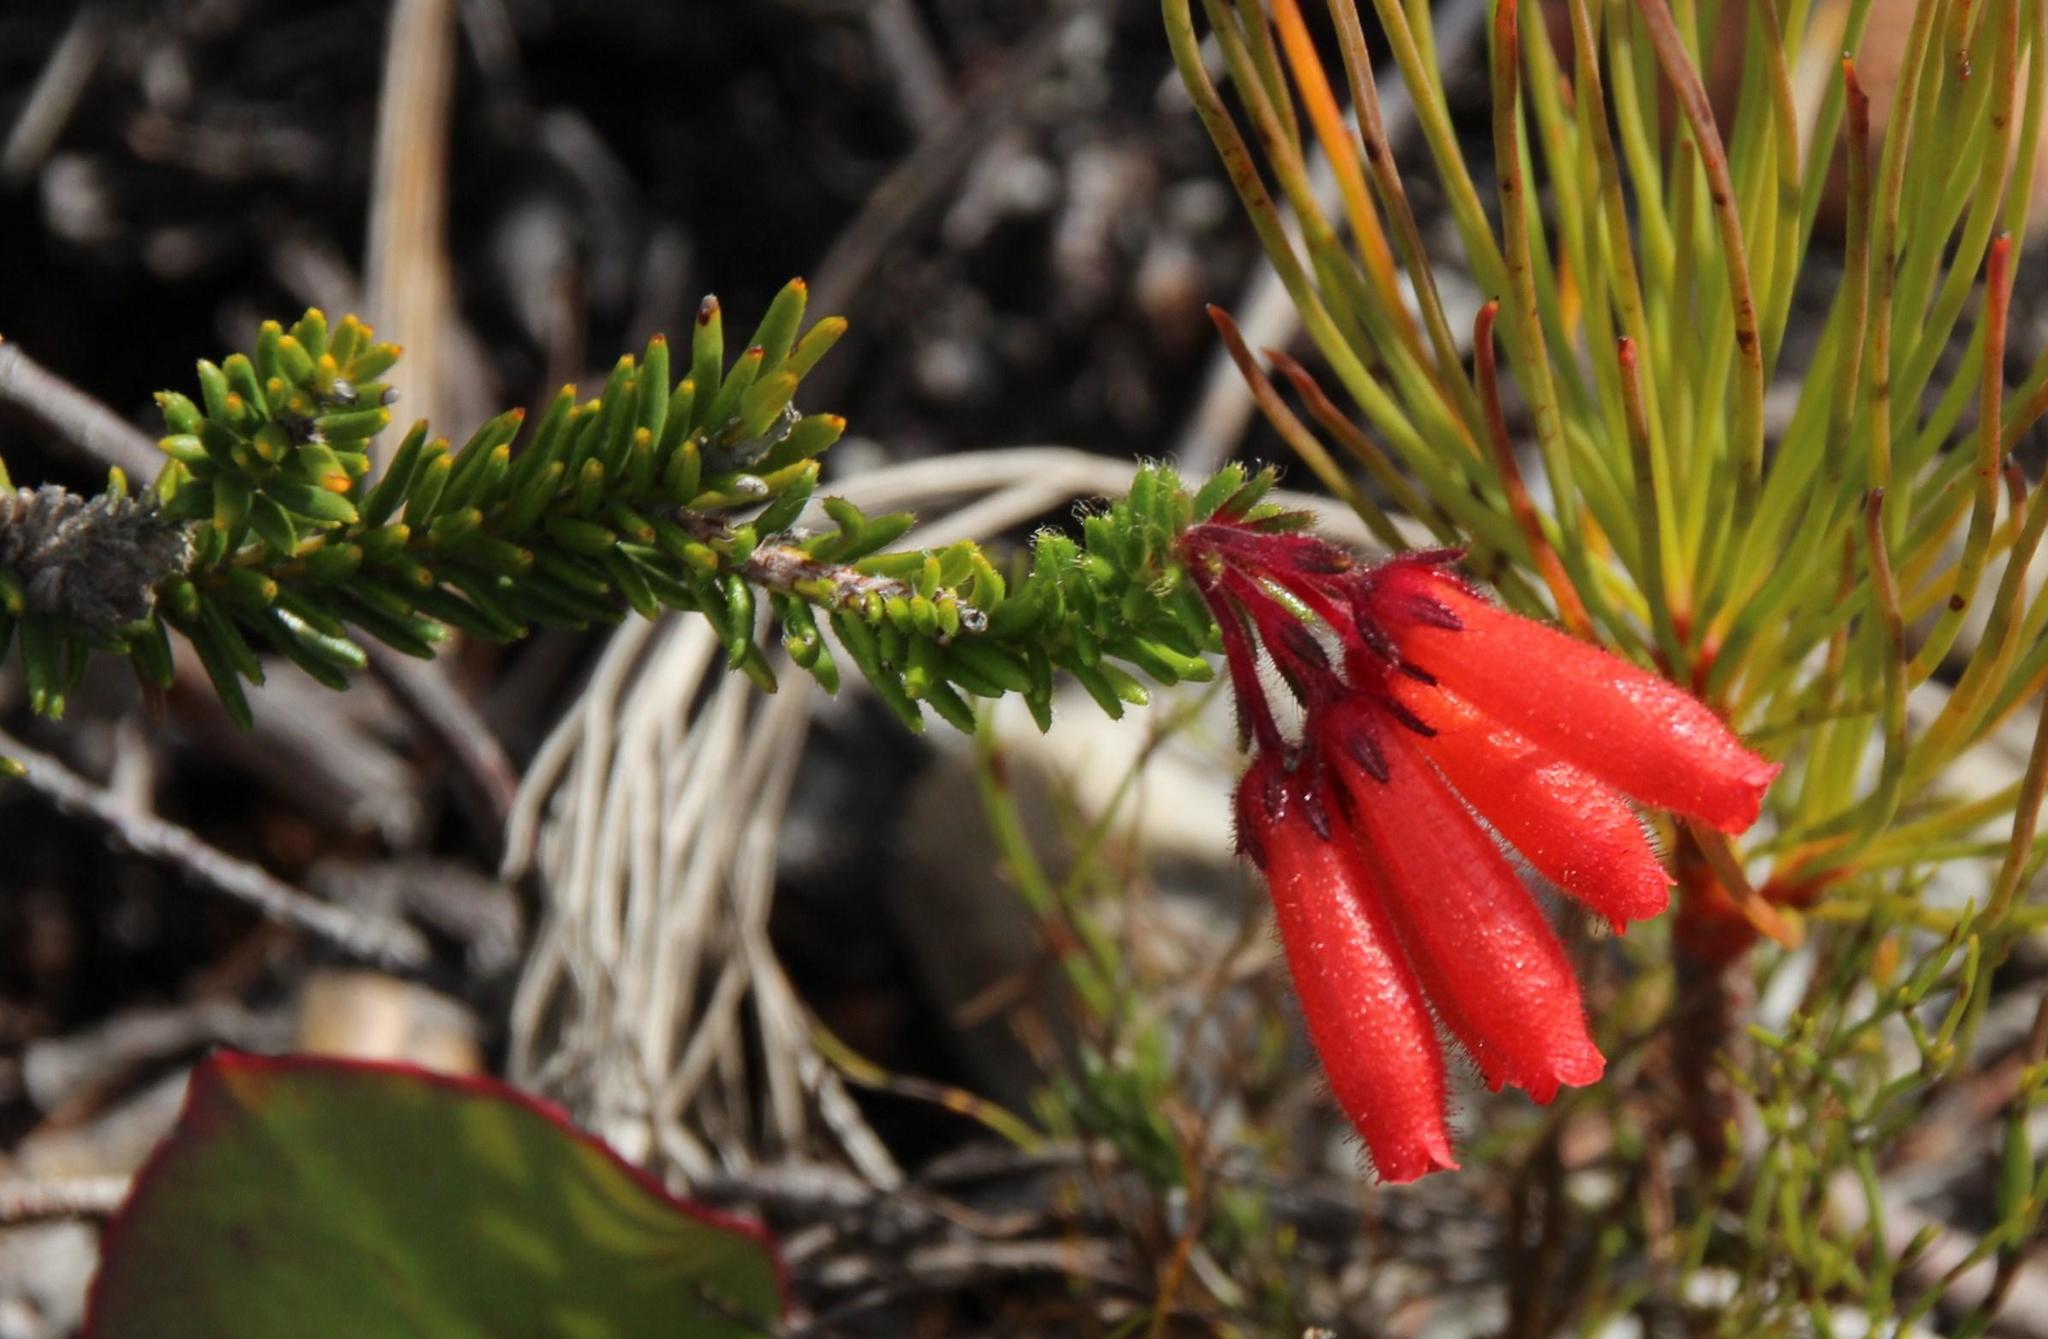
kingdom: Plantae
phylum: Tracheophyta
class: Magnoliopsida
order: Ericales
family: Ericaceae
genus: Erica
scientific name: Erica cerinthoides
